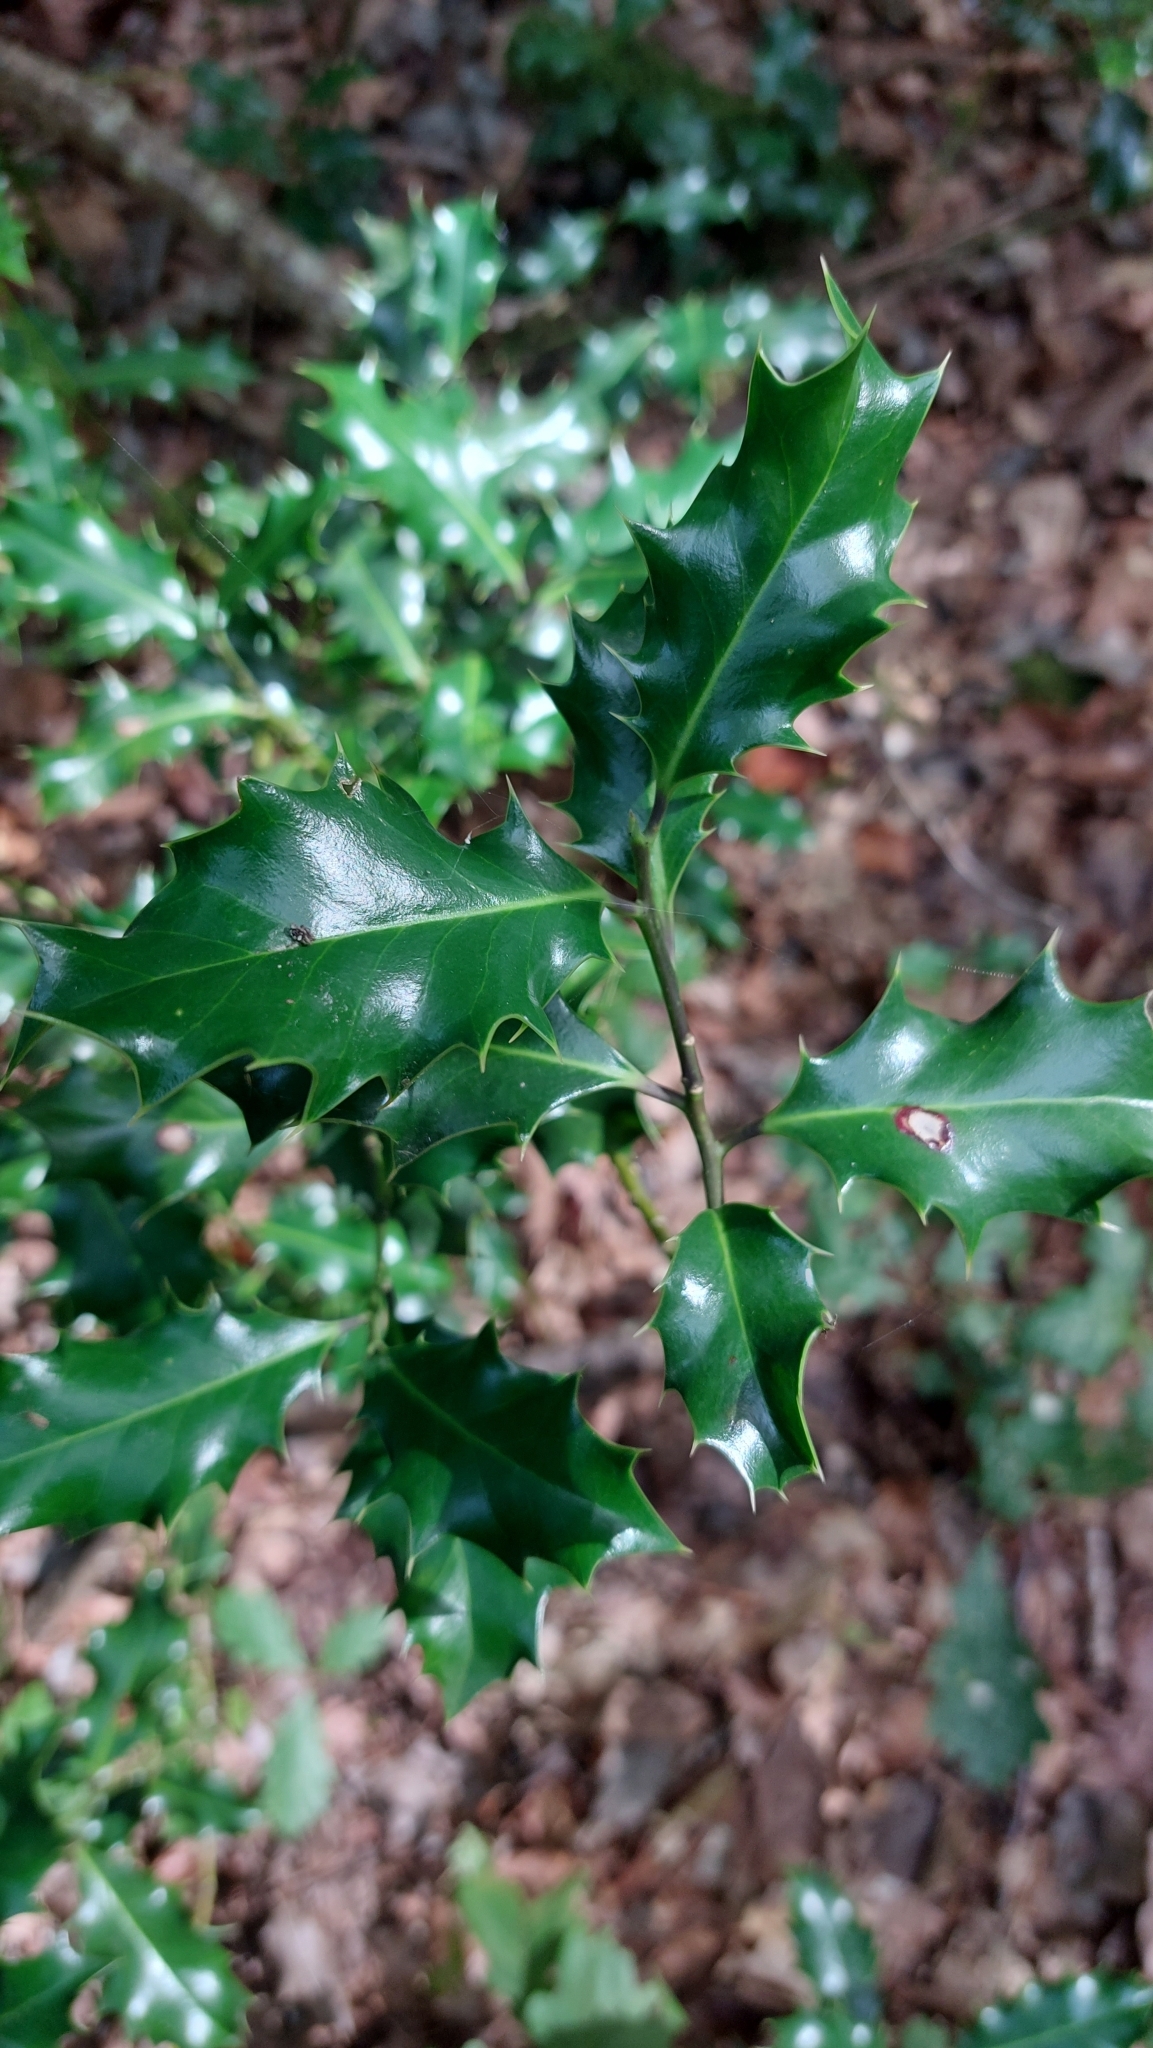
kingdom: Plantae
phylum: Tracheophyta
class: Magnoliopsida
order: Aquifoliales
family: Aquifoliaceae
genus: Ilex
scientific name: Ilex aquifolium
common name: English holly
